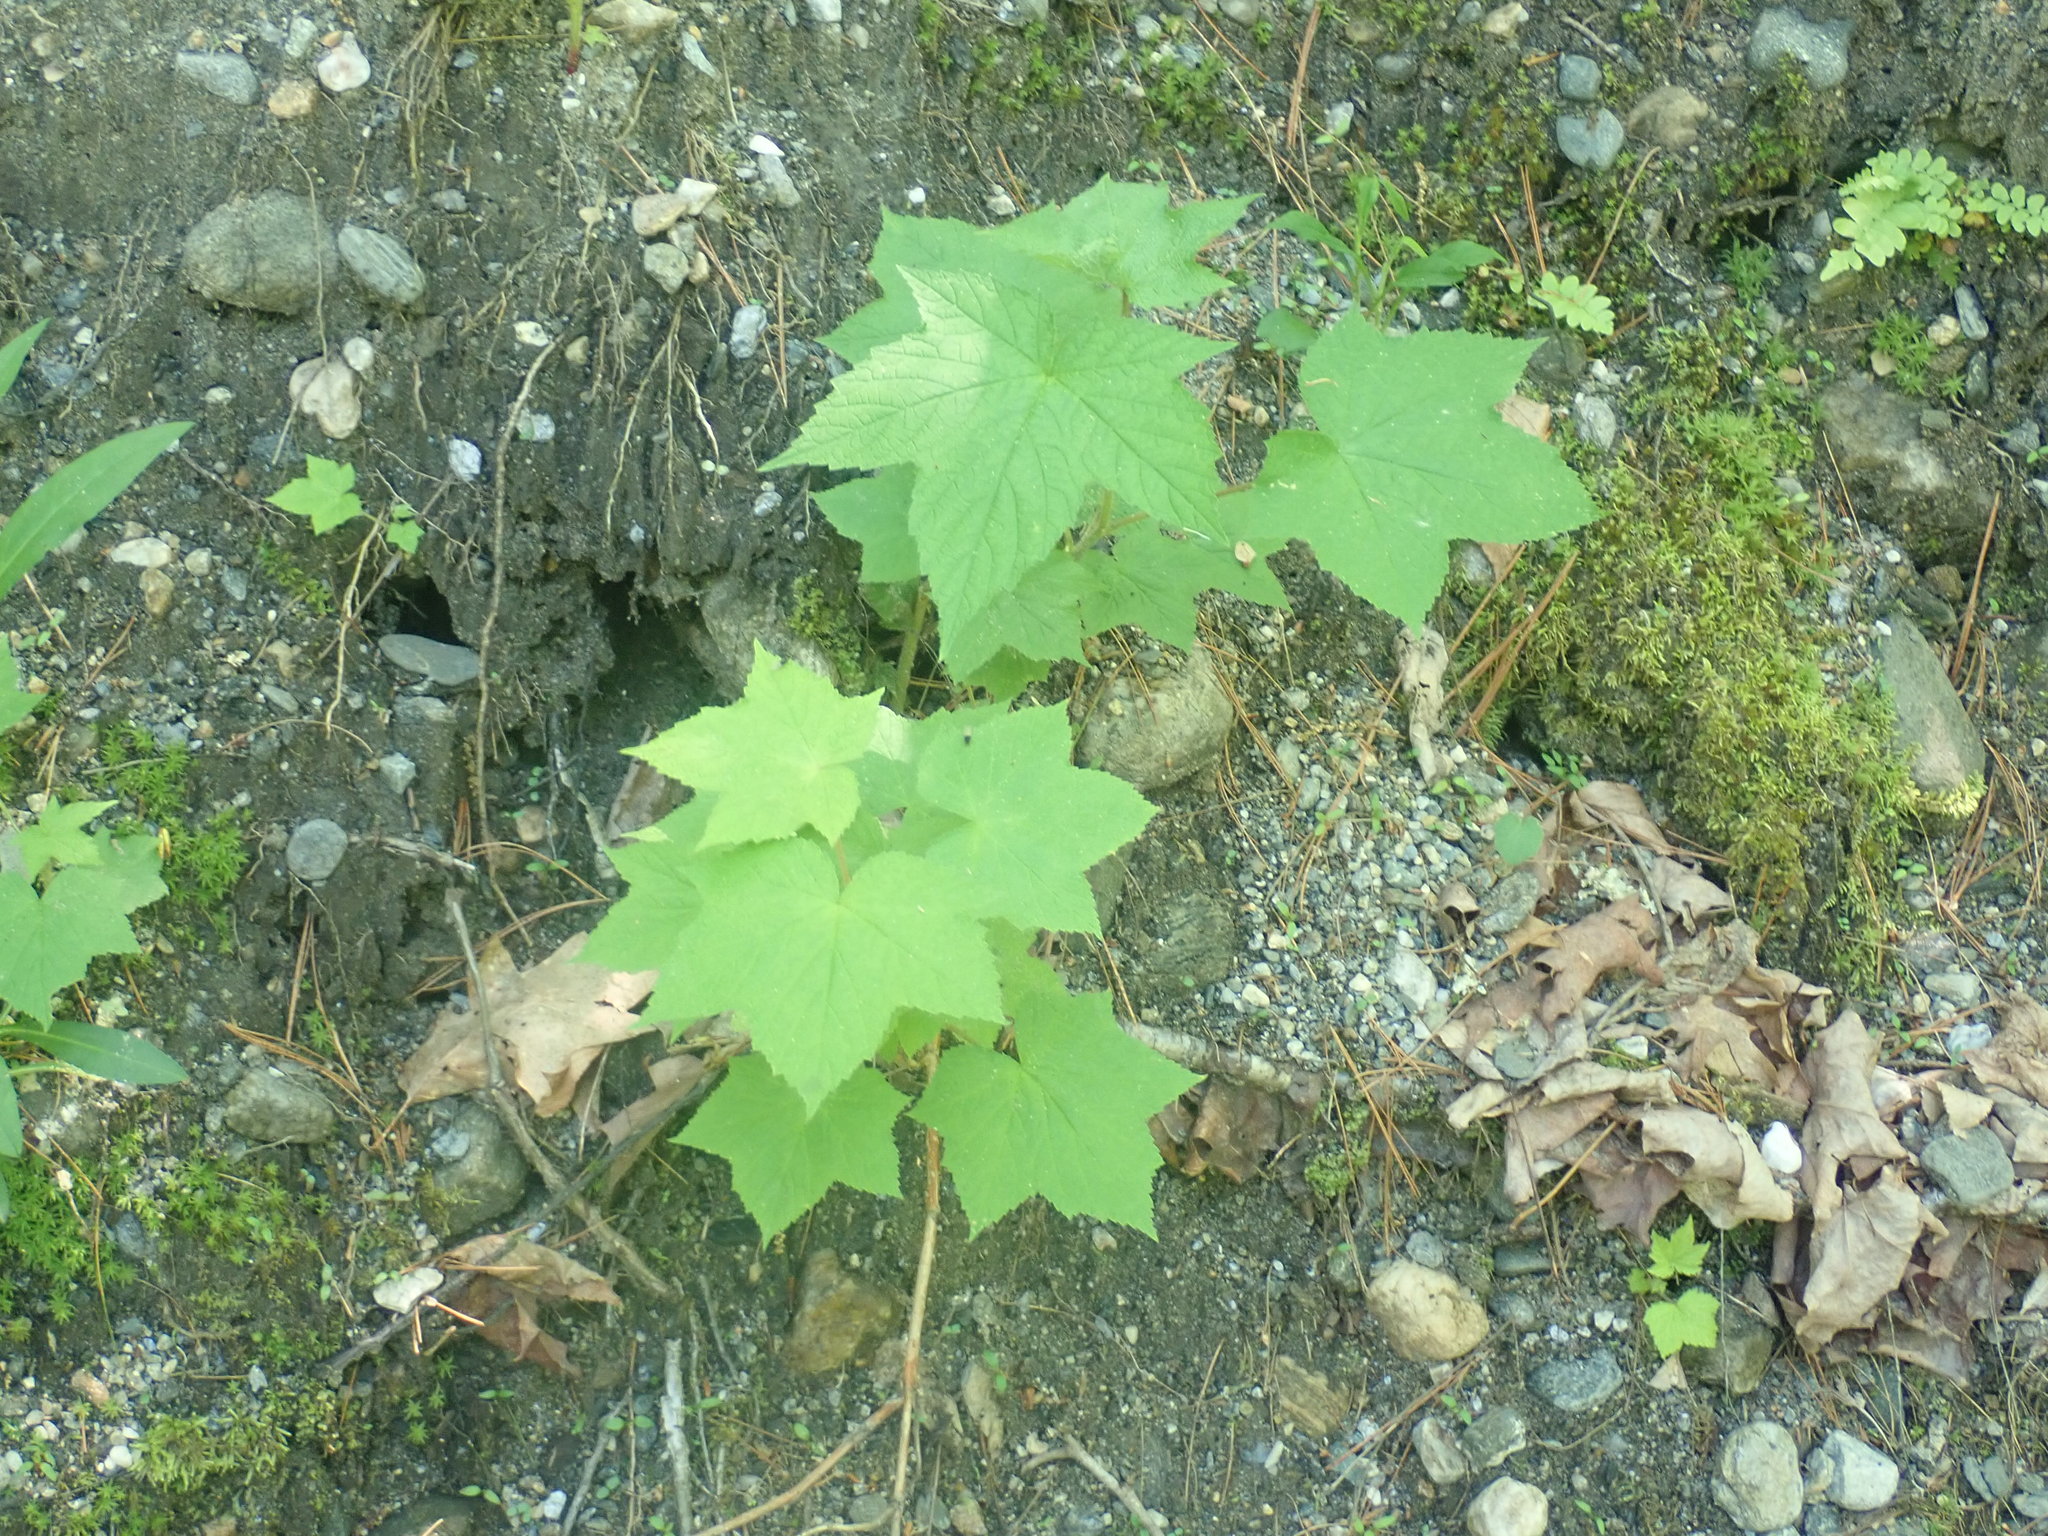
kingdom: Plantae
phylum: Tracheophyta
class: Magnoliopsida
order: Rosales
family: Rosaceae
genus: Rubus
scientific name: Rubus odoratus
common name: Purple-flowered raspberry
